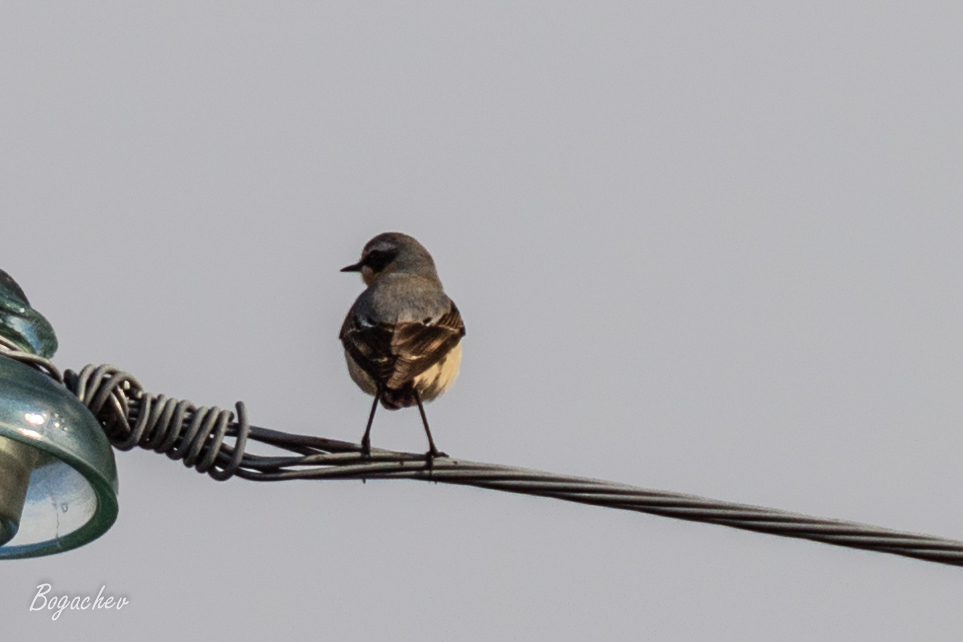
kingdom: Animalia
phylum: Chordata
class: Aves
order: Passeriformes
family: Muscicapidae
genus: Oenanthe
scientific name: Oenanthe oenanthe
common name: Northern wheatear
